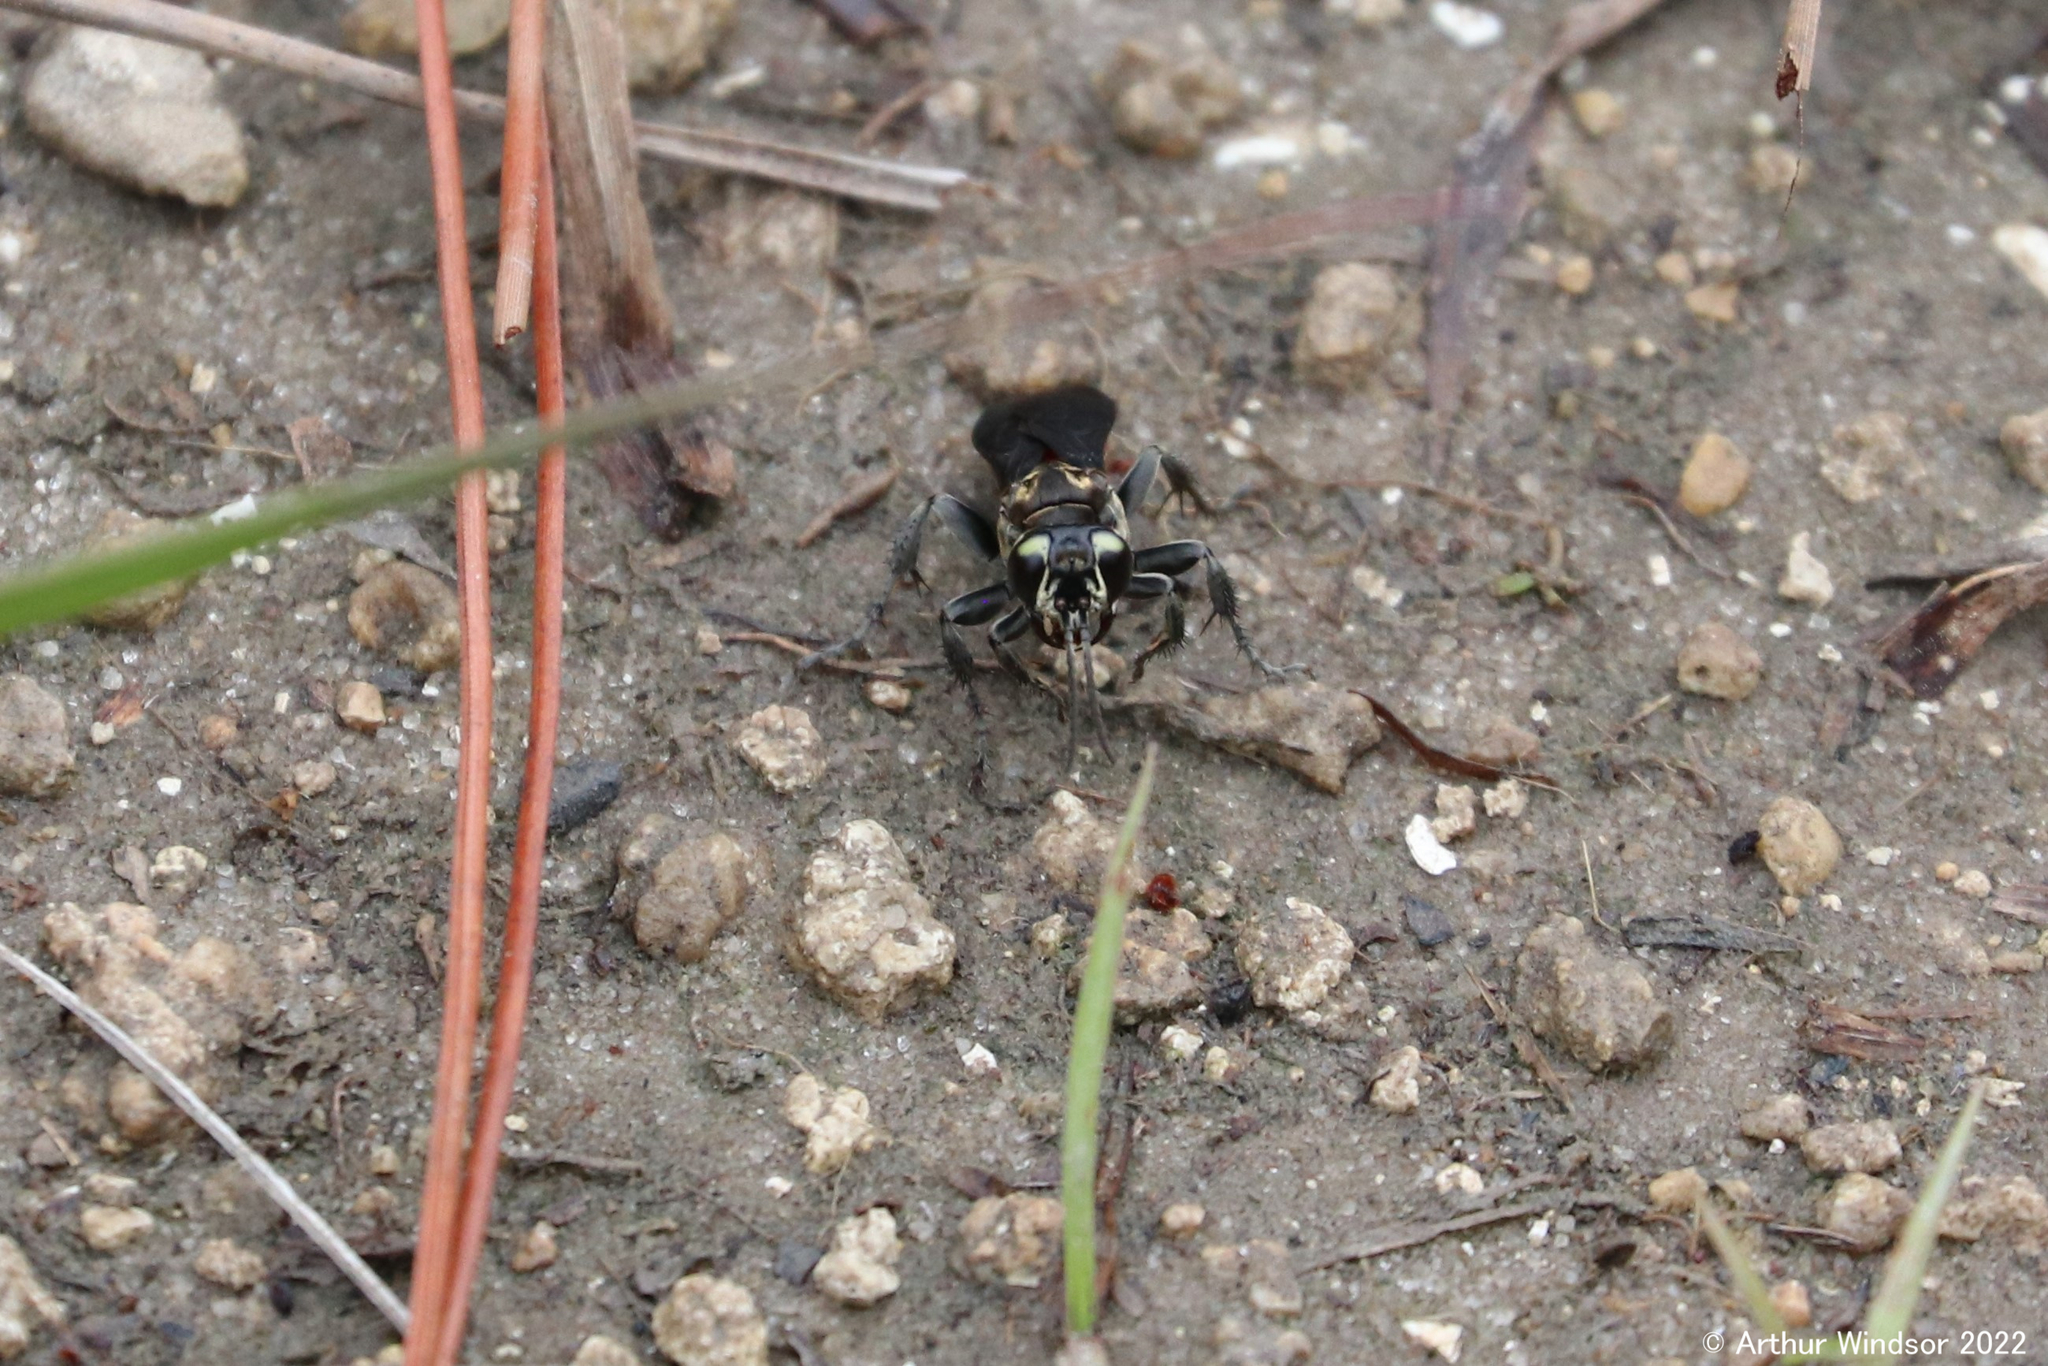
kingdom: Animalia
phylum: Arthropoda
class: Insecta
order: Hymenoptera
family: Crabronidae
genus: Larra
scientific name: Larra bicolor
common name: Wasp
